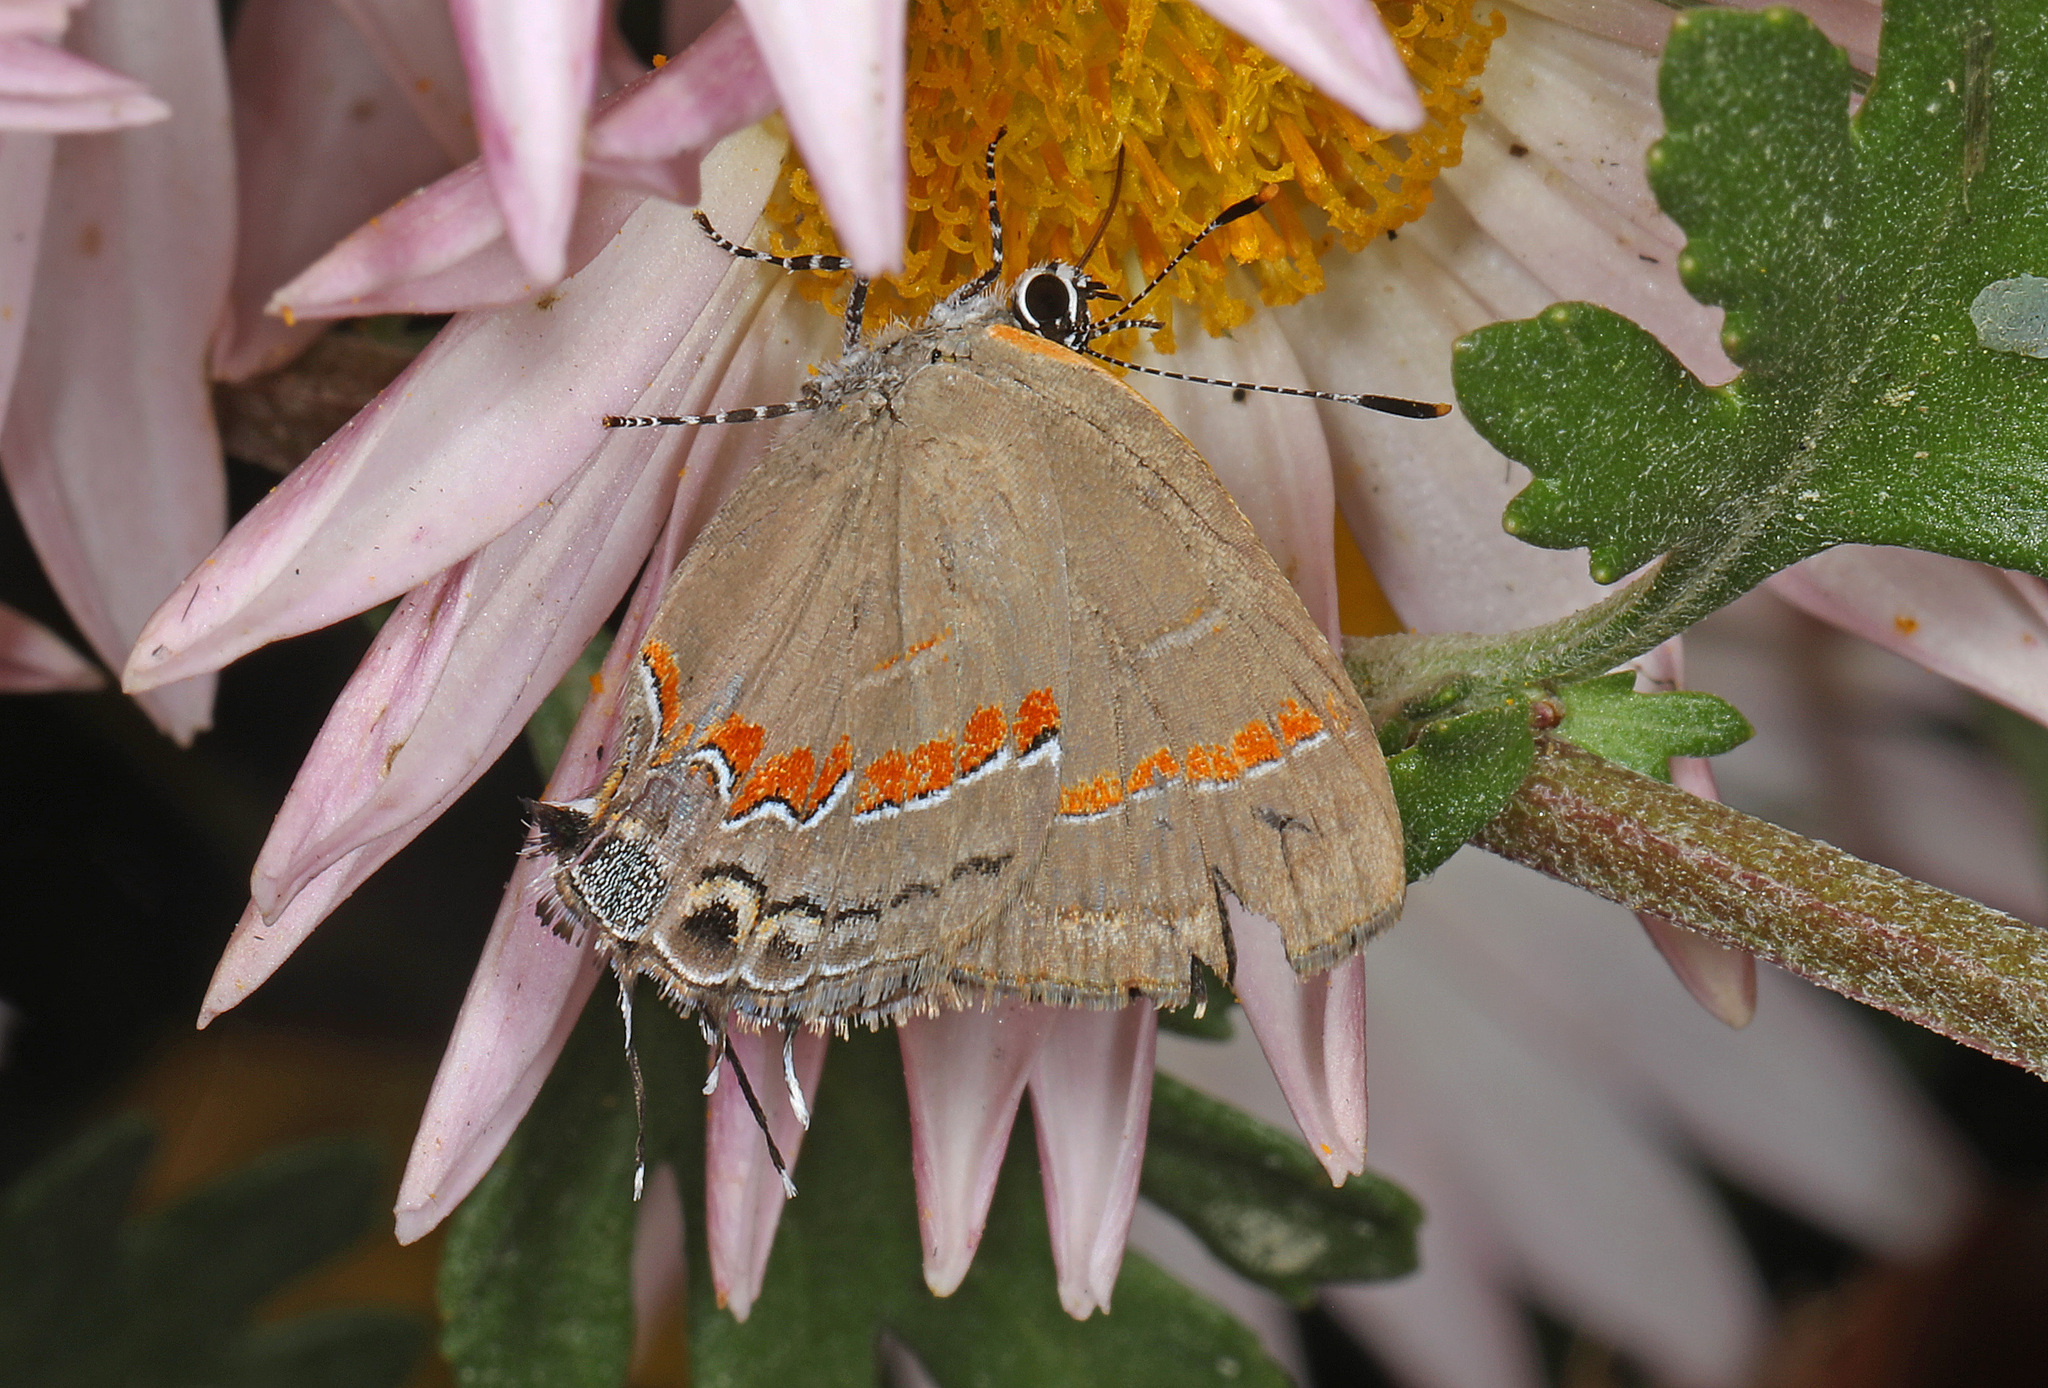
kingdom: Animalia
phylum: Arthropoda
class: Insecta
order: Lepidoptera
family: Lycaenidae
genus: Calycopis
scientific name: Calycopis cecrops
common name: Red-banded hairstreak
